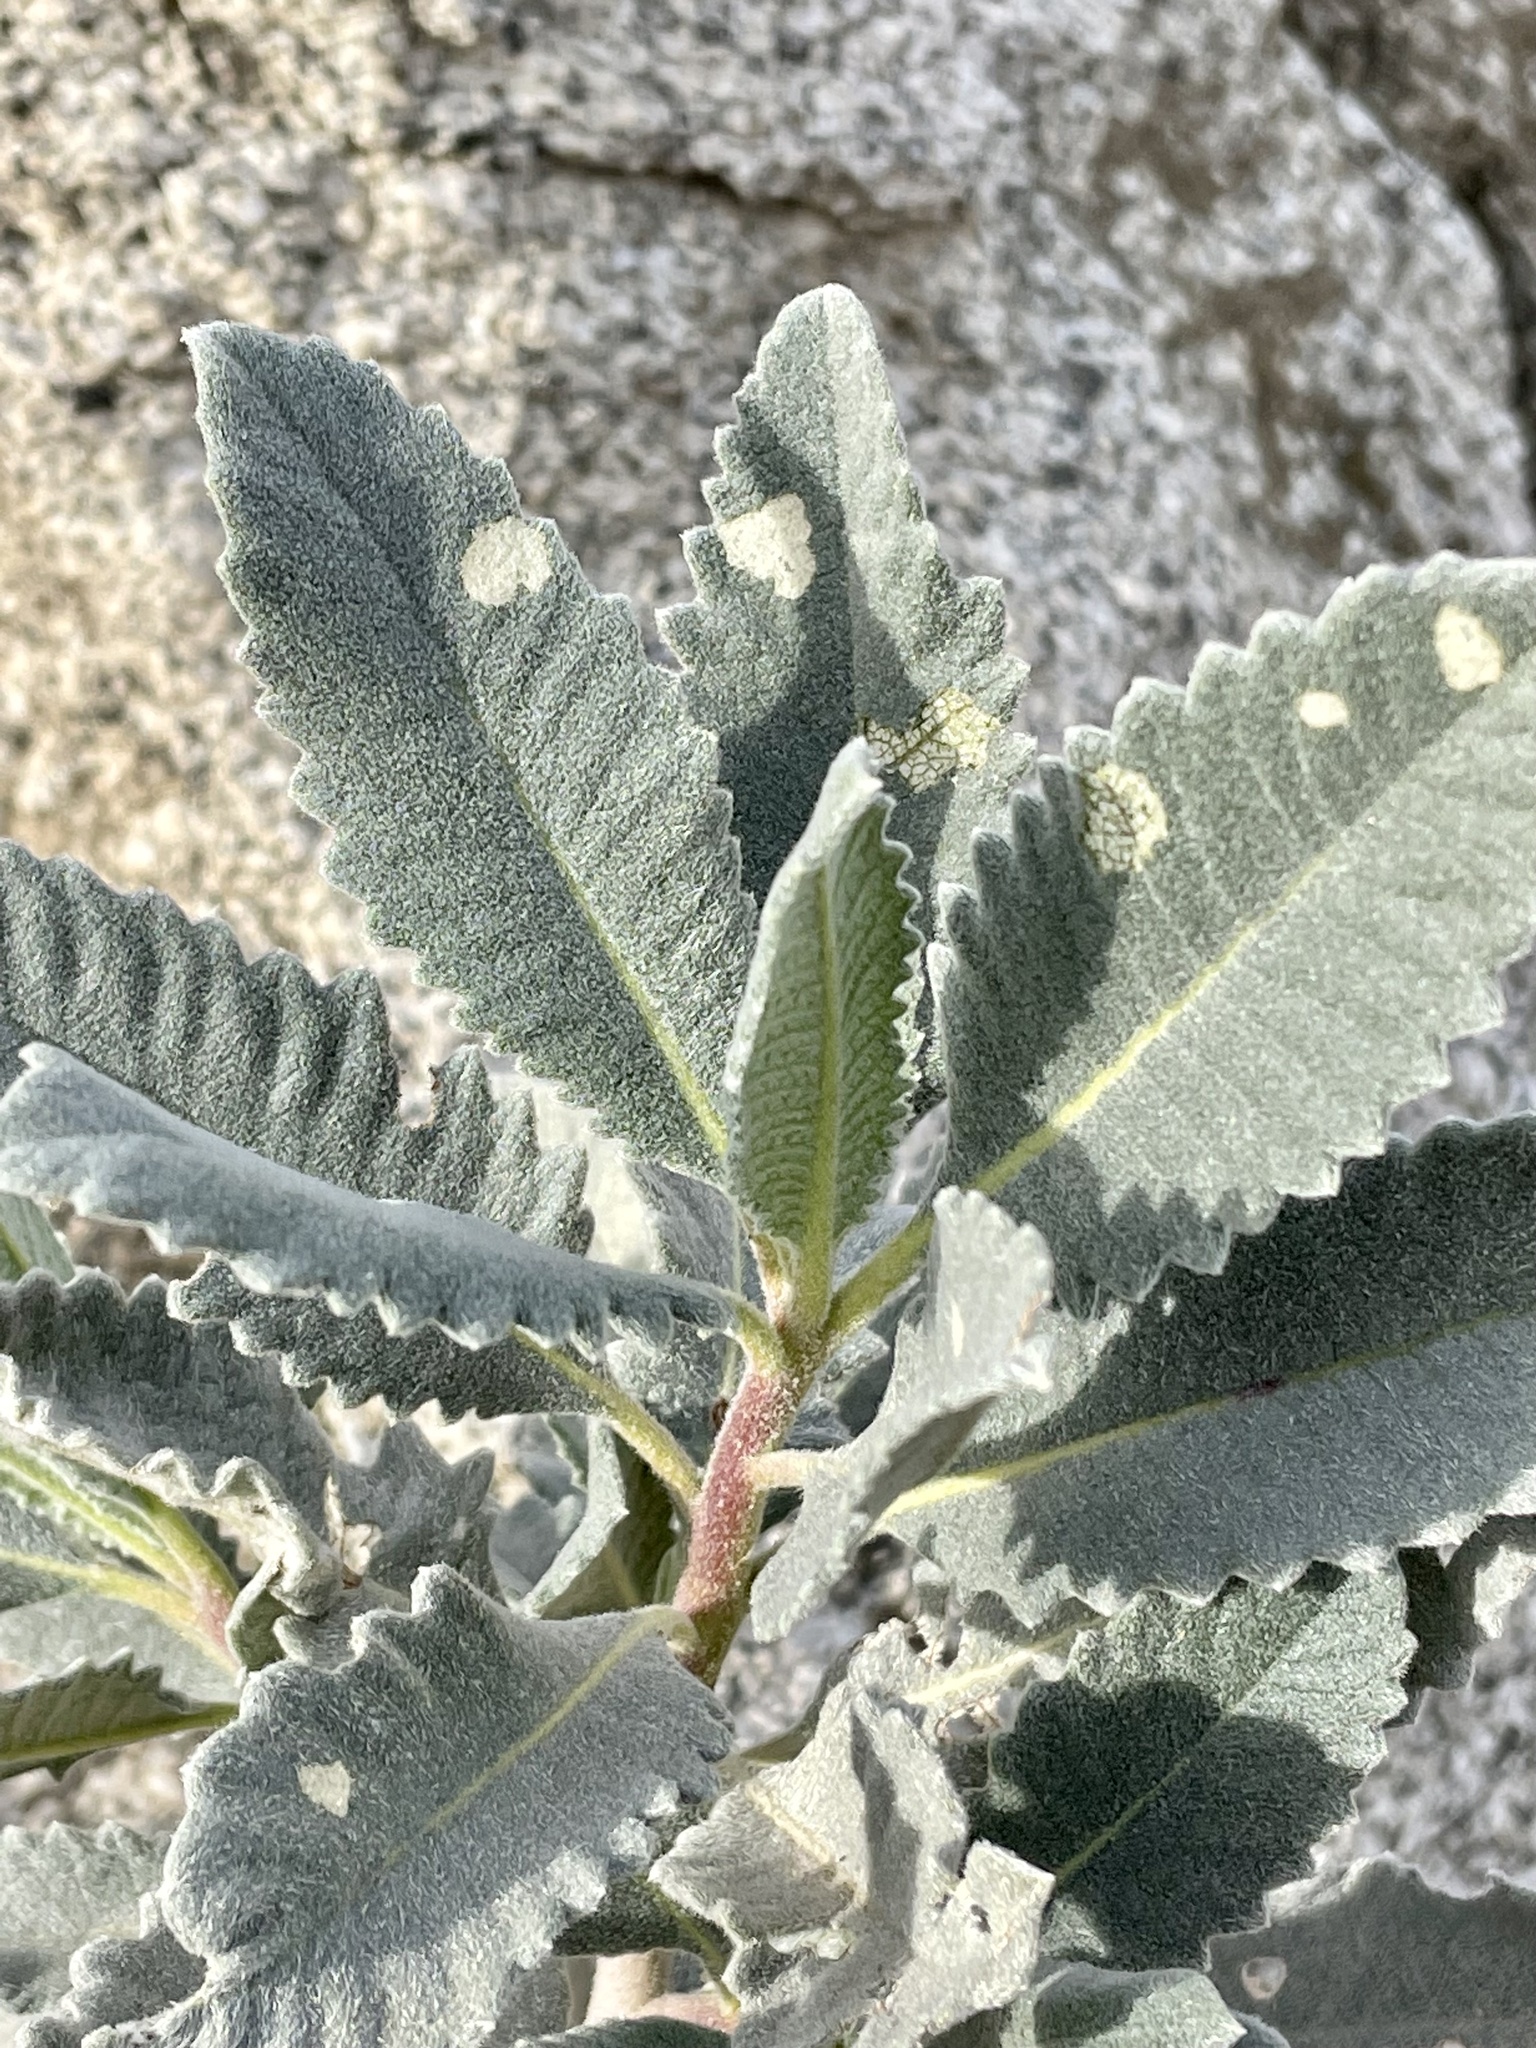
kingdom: Plantae
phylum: Tracheophyta
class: Magnoliopsida
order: Boraginales
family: Namaceae
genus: Eriodictyon
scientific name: Eriodictyon crassifolium
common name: Thick-leaf yerba-santa
